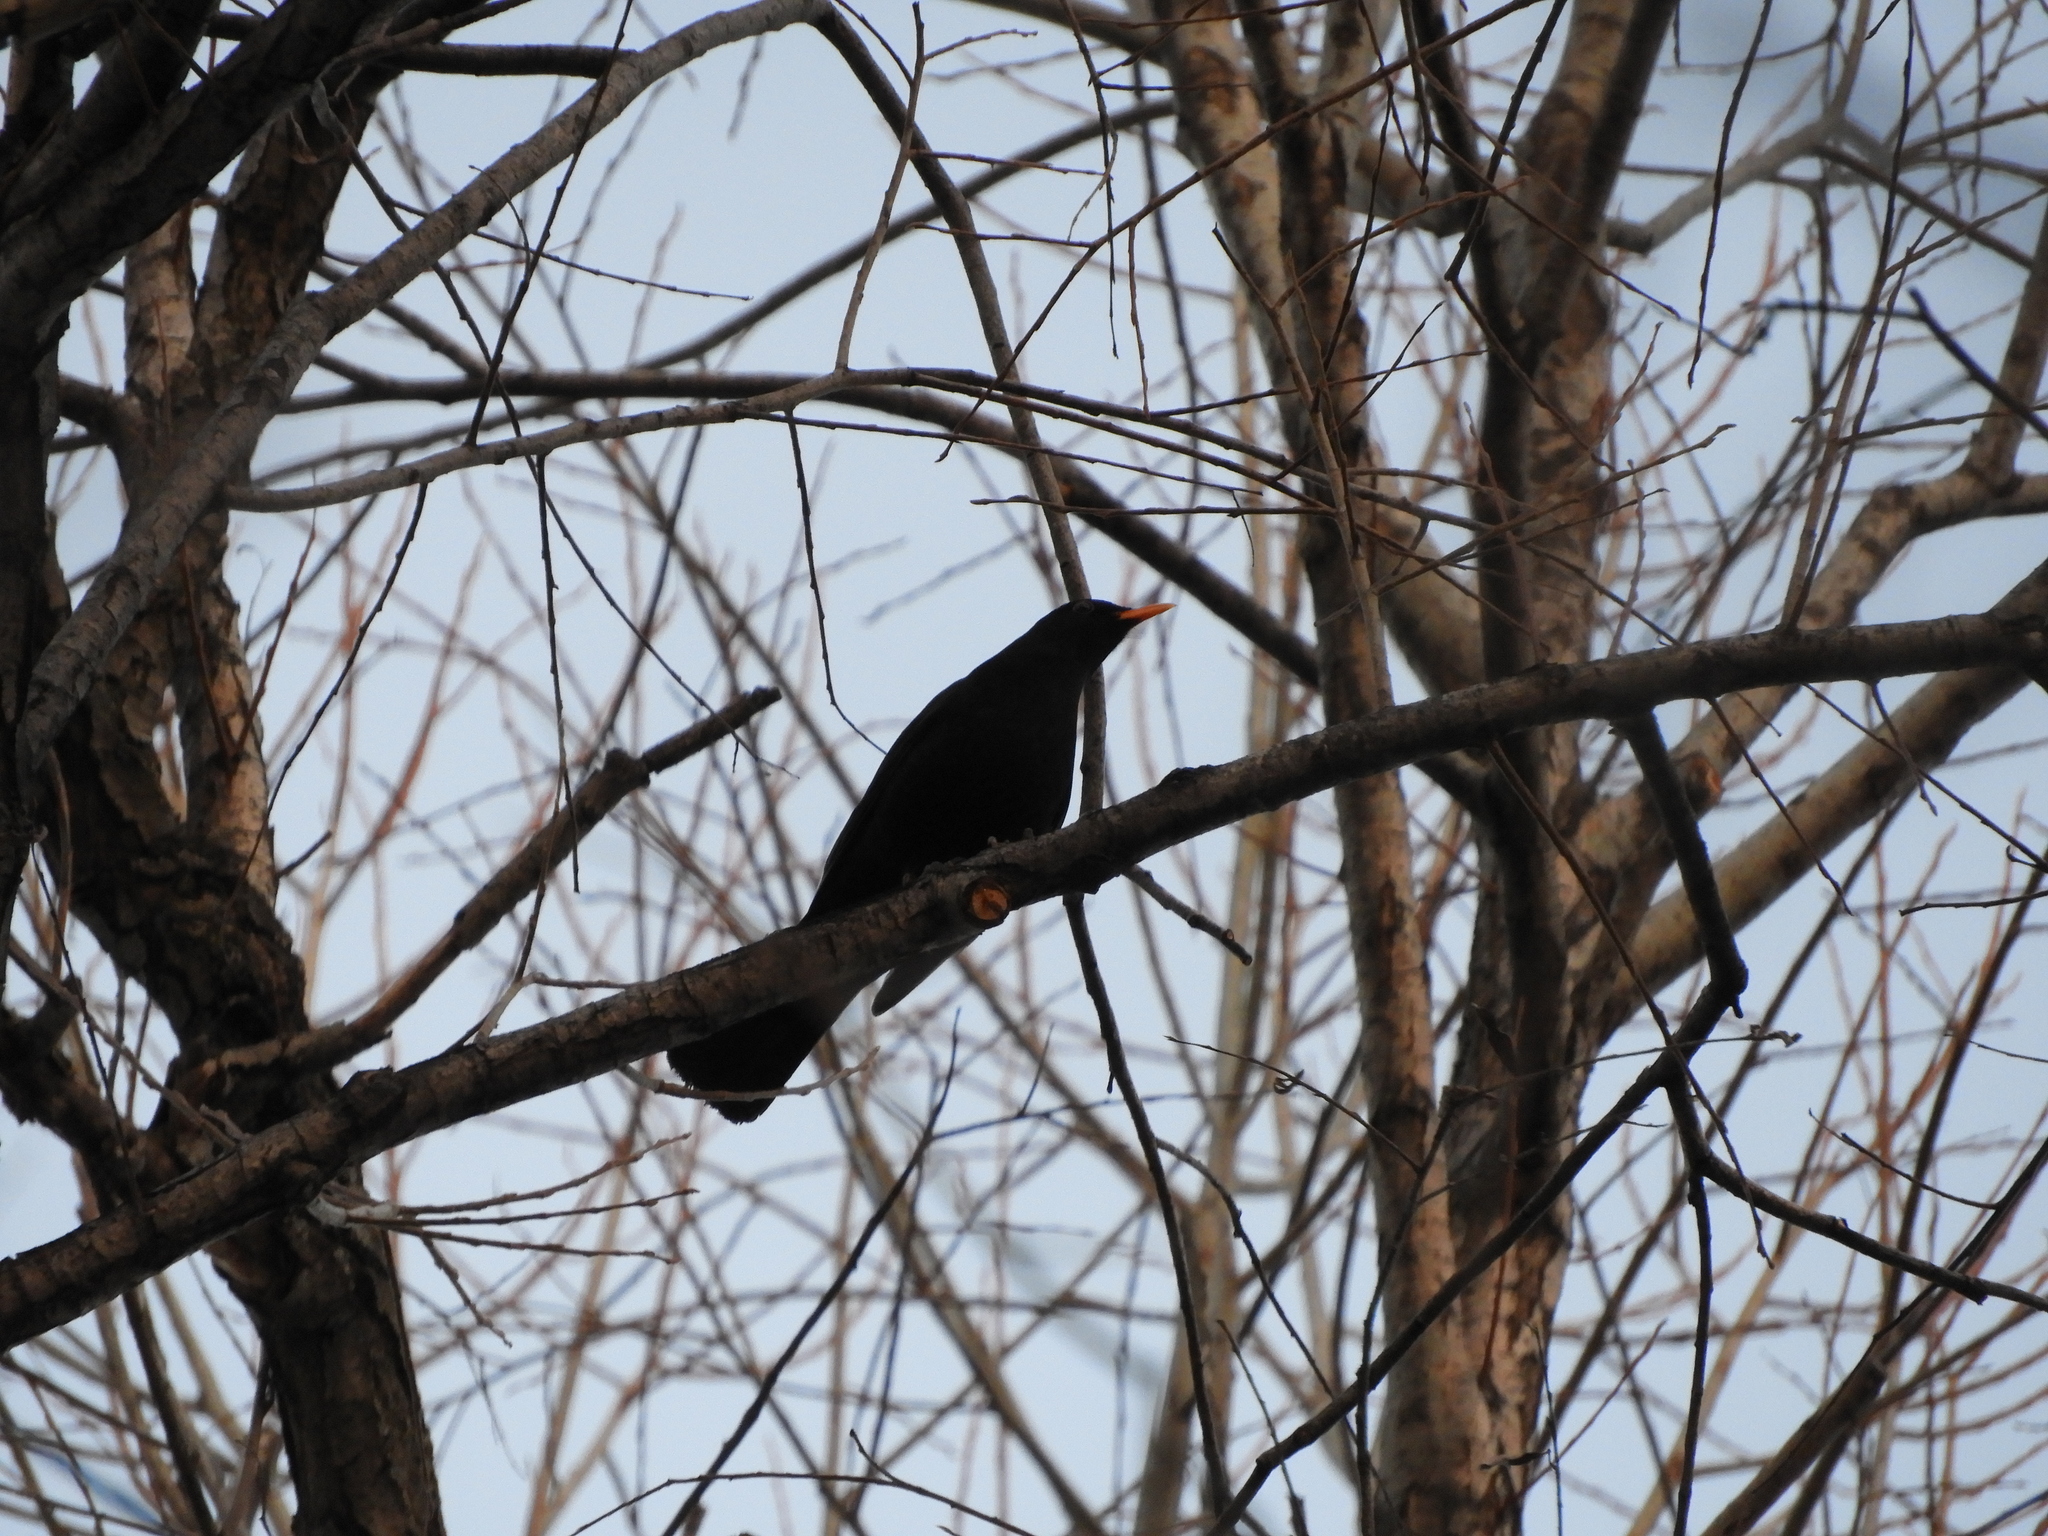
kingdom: Animalia
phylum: Chordata
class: Aves
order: Passeriformes
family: Turdidae
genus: Turdus
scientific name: Turdus merula
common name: Common blackbird
